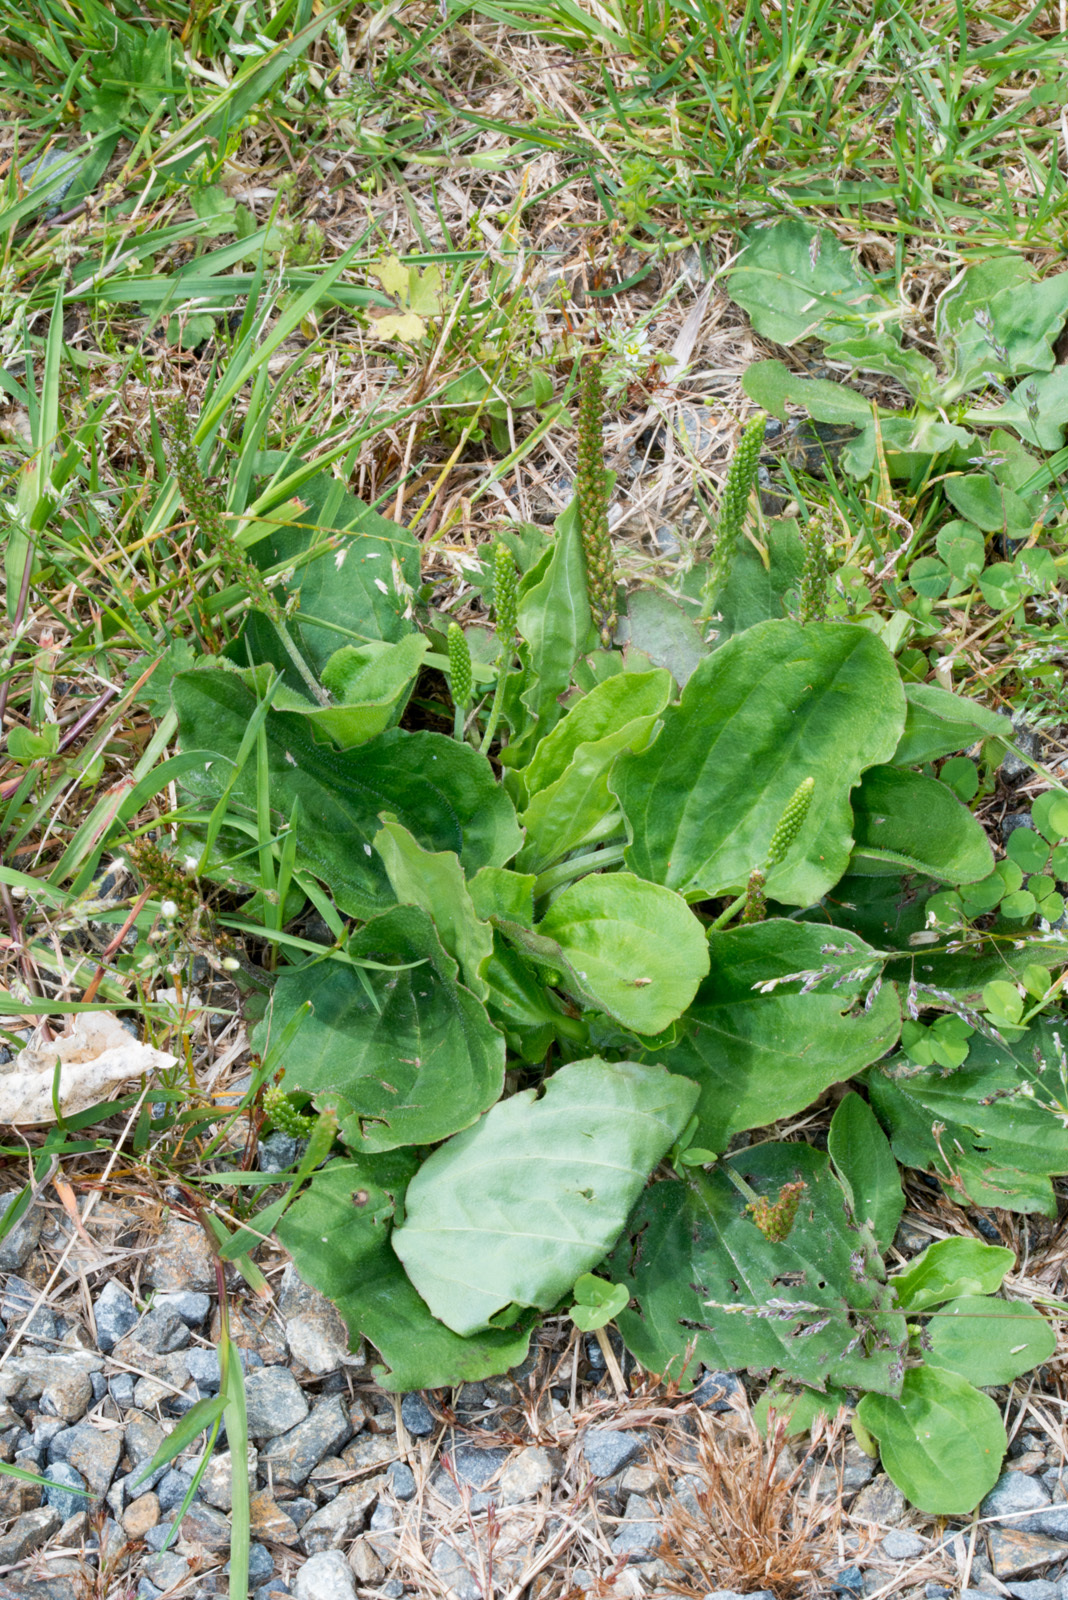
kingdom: Plantae
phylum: Tracheophyta
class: Magnoliopsida
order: Lamiales
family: Plantaginaceae
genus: Plantago
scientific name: Plantago major
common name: Common plantain
